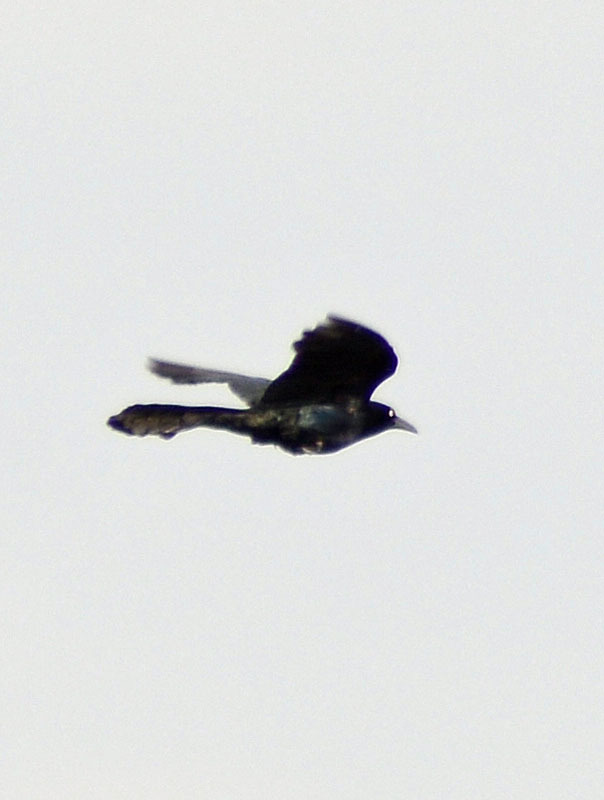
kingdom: Animalia
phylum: Chordata
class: Aves
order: Passeriformes
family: Icteridae
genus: Quiscalus
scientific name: Quiscalus mexicanus
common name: Great-tailed grackle
